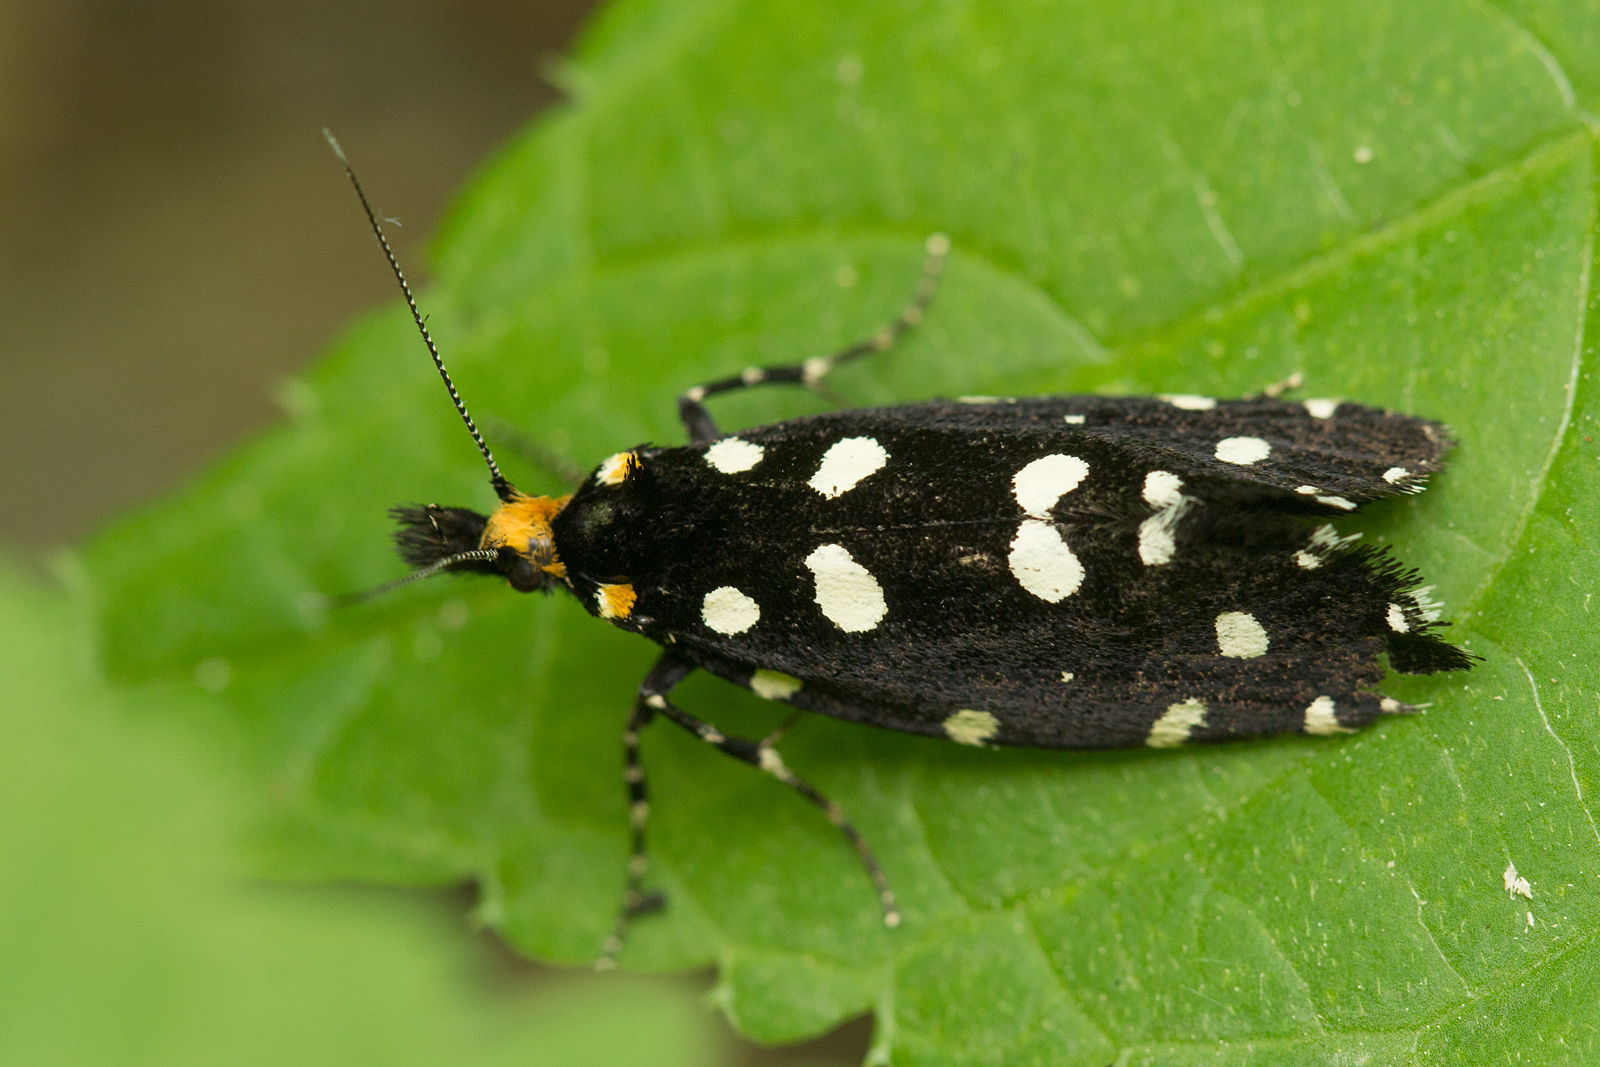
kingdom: Animalia
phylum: Arthropoda
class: Insecta
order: Lepidoptera
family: Tineidae
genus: Euplocamus
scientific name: Euplocamus anthracinalis
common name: Black clothes
